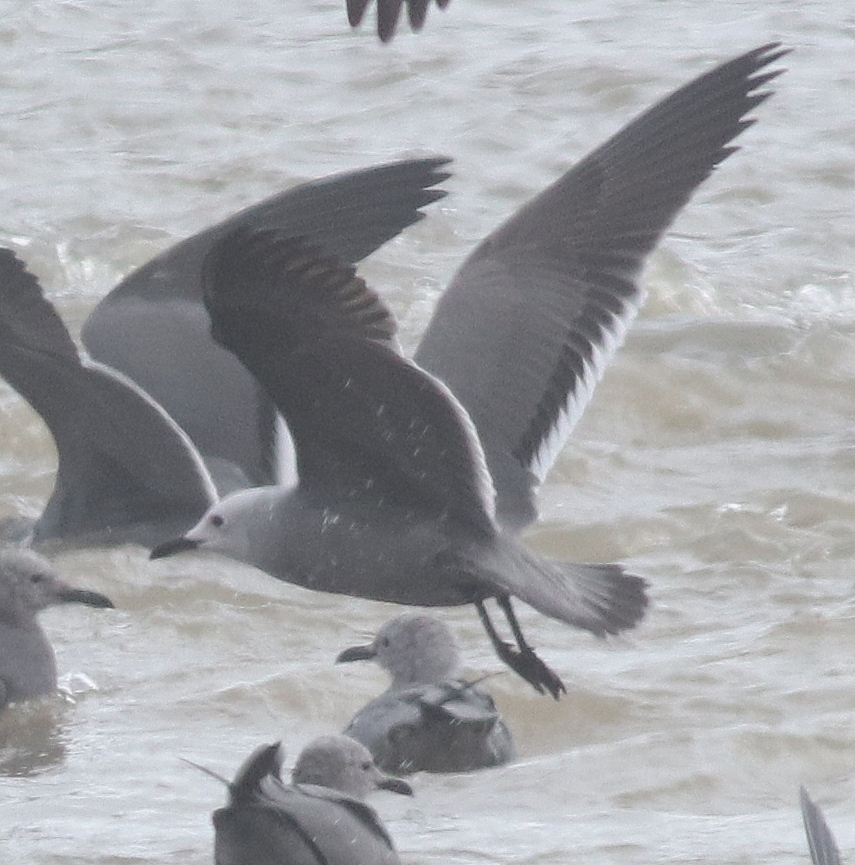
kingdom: Animalia
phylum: Chordata
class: Aves
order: Charadriiformes
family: Laridae
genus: Leucophaeus
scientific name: Leucophaeus modestus
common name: Gray gull
